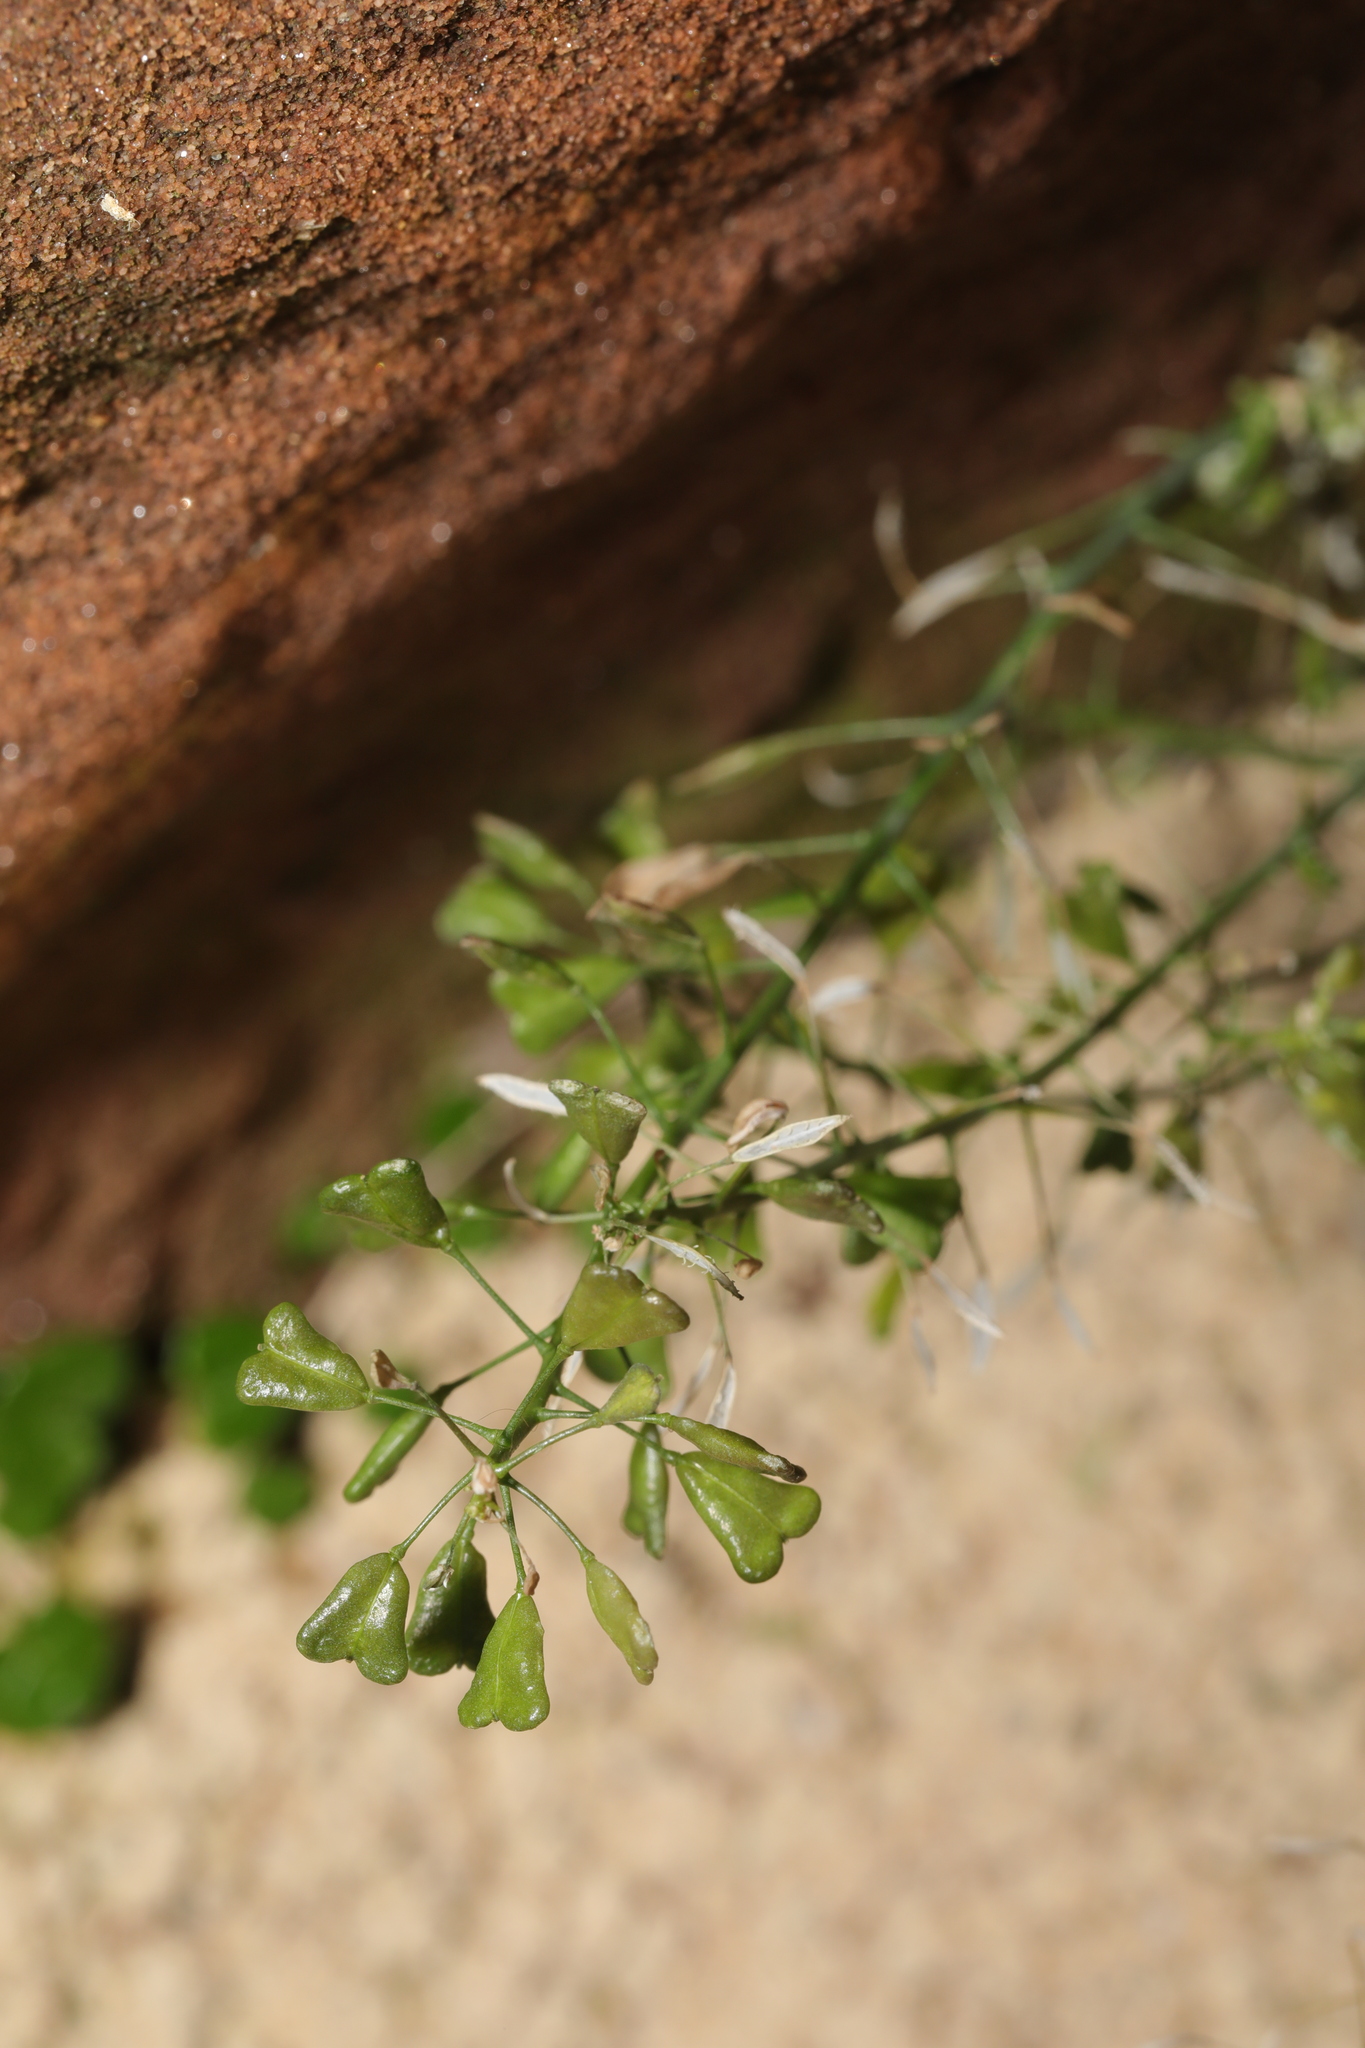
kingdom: Plantae
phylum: Tracheophyta
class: Magnoliopsida
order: Brassicales
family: Brassicaceae
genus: Capsella
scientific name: Capsella bursa-pastoris
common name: Shepherd's purse
